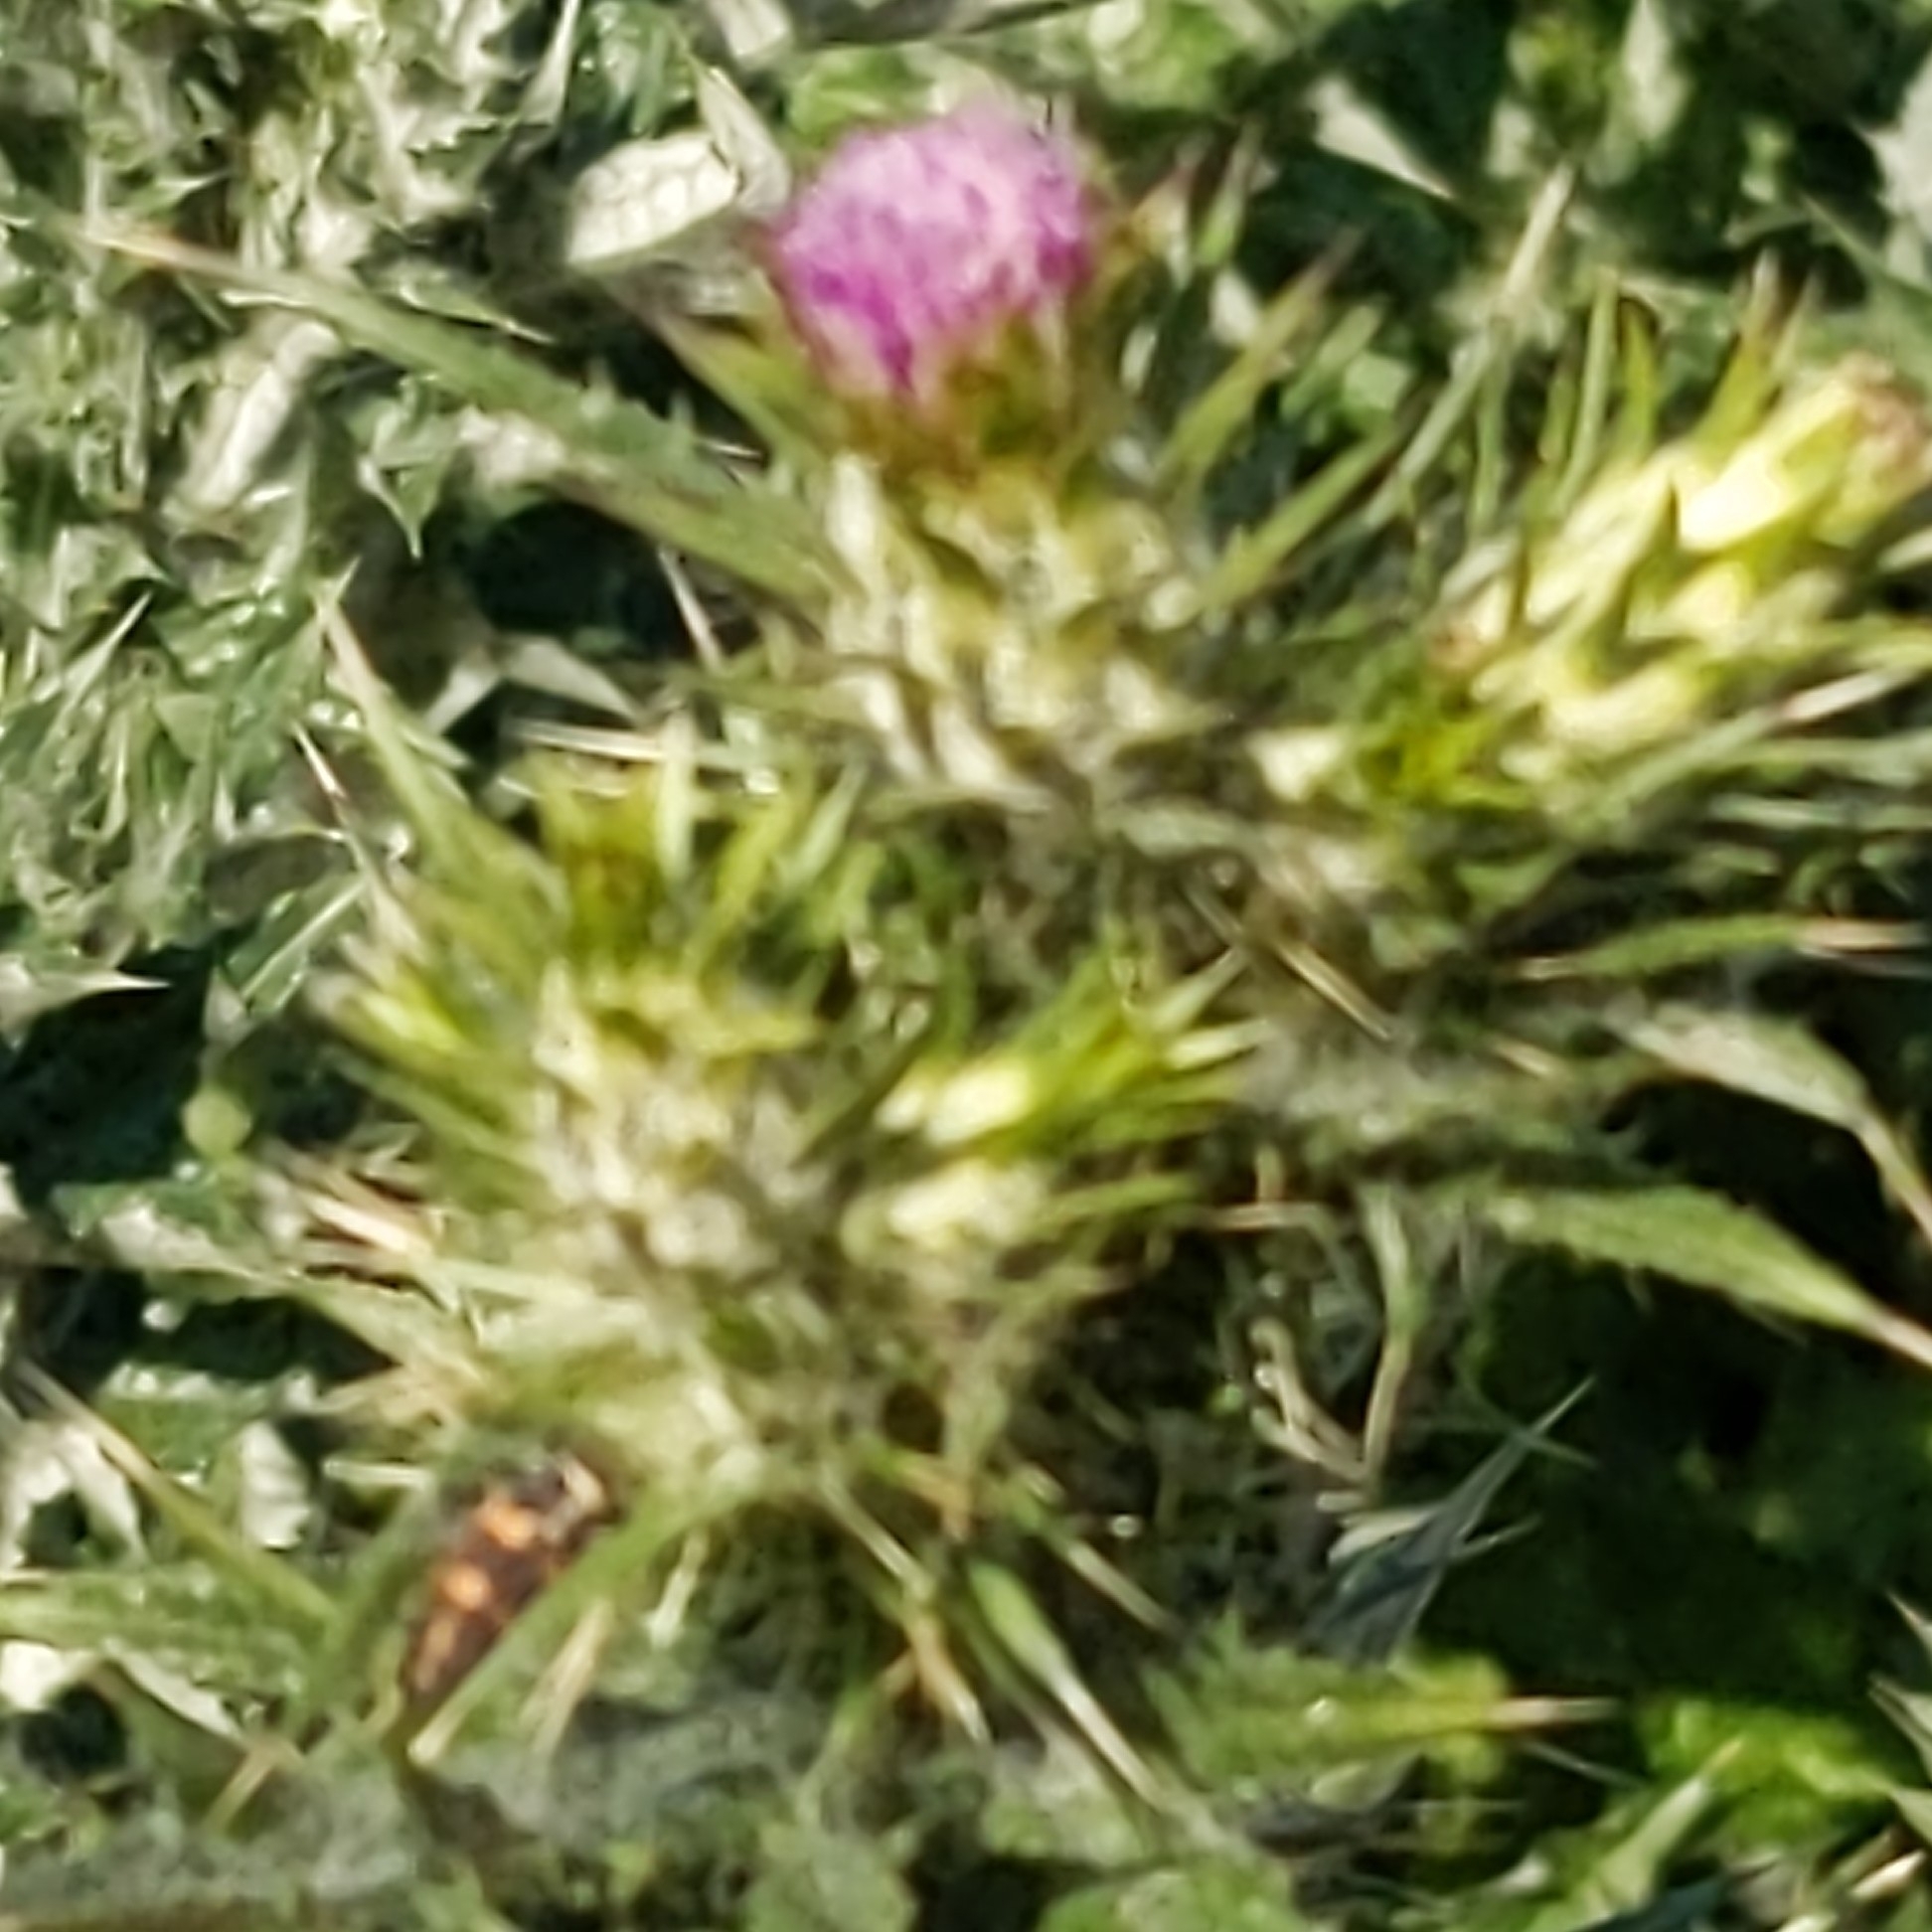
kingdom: Plantae
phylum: Tracheophyta
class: Magnoliopsida
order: Asterales
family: Asteraceae
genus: Carduus
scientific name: Carduus pycnocephalus
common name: Plymouth thistle
